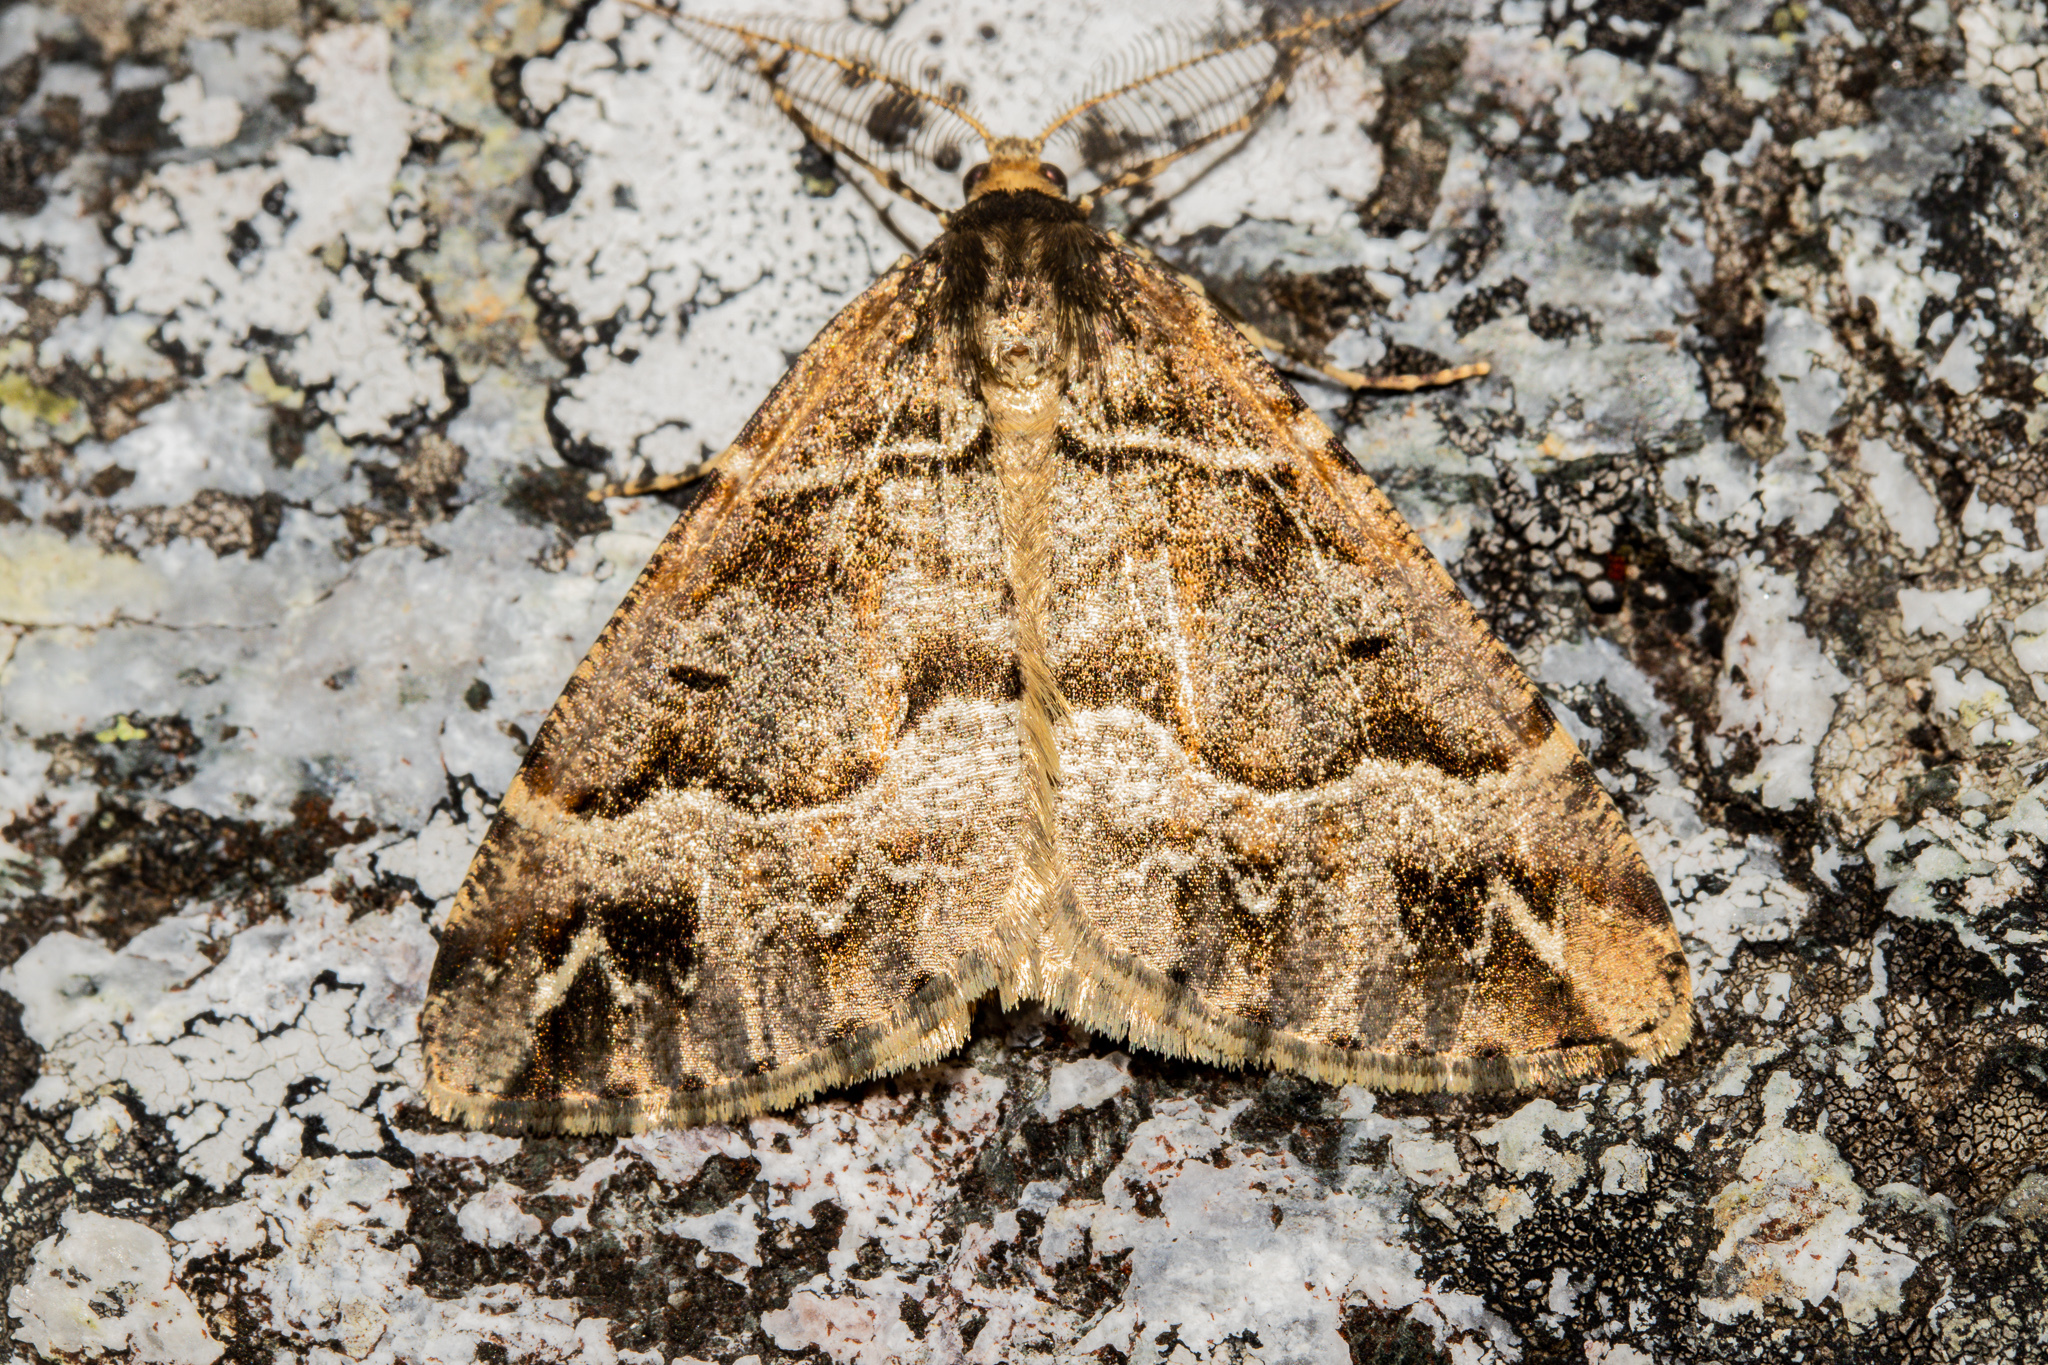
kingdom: Animalia
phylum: Arthropoda
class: Insecta
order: Lepidoptera
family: Geometridae
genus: Pseudocoremia
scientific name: Pseudocoremia colpogramma
